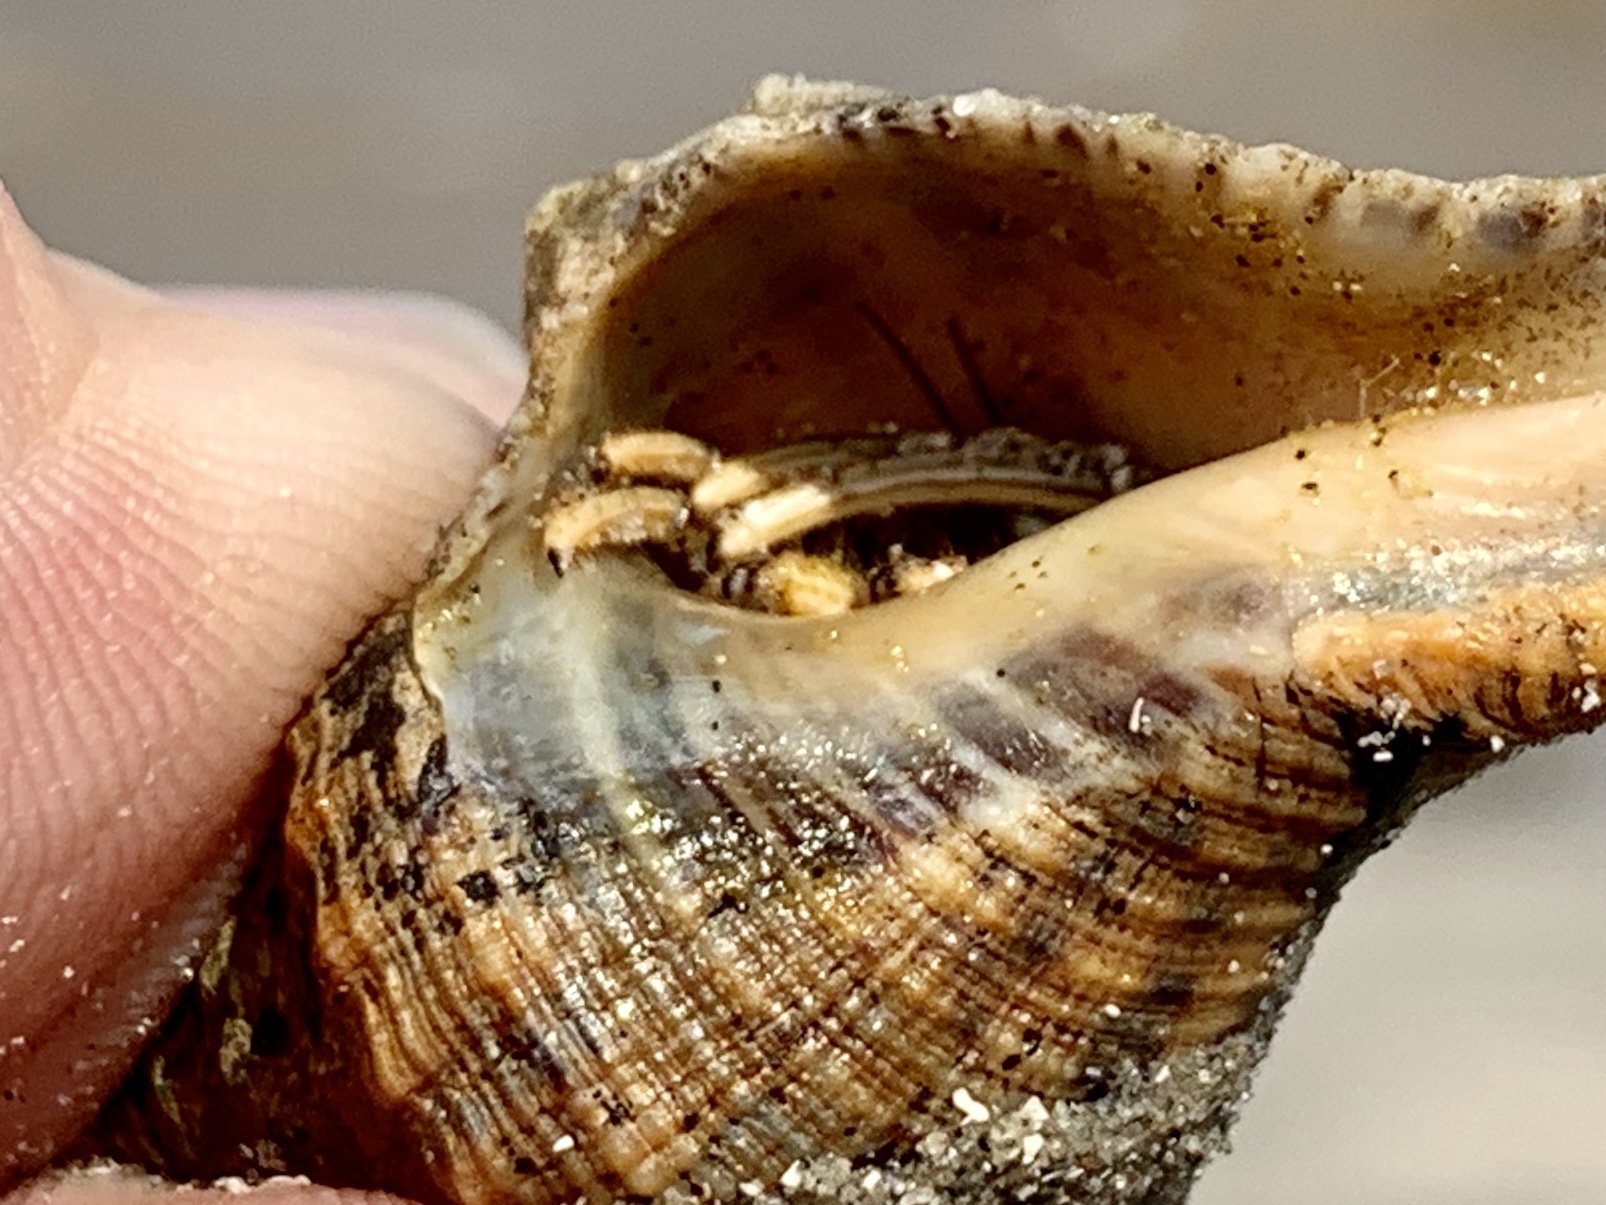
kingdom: Animalia
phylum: Arthropoda
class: Malacostraca
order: Decapoda
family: Diogenidae
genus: Clibanarius
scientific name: Clibanarius vittatus
